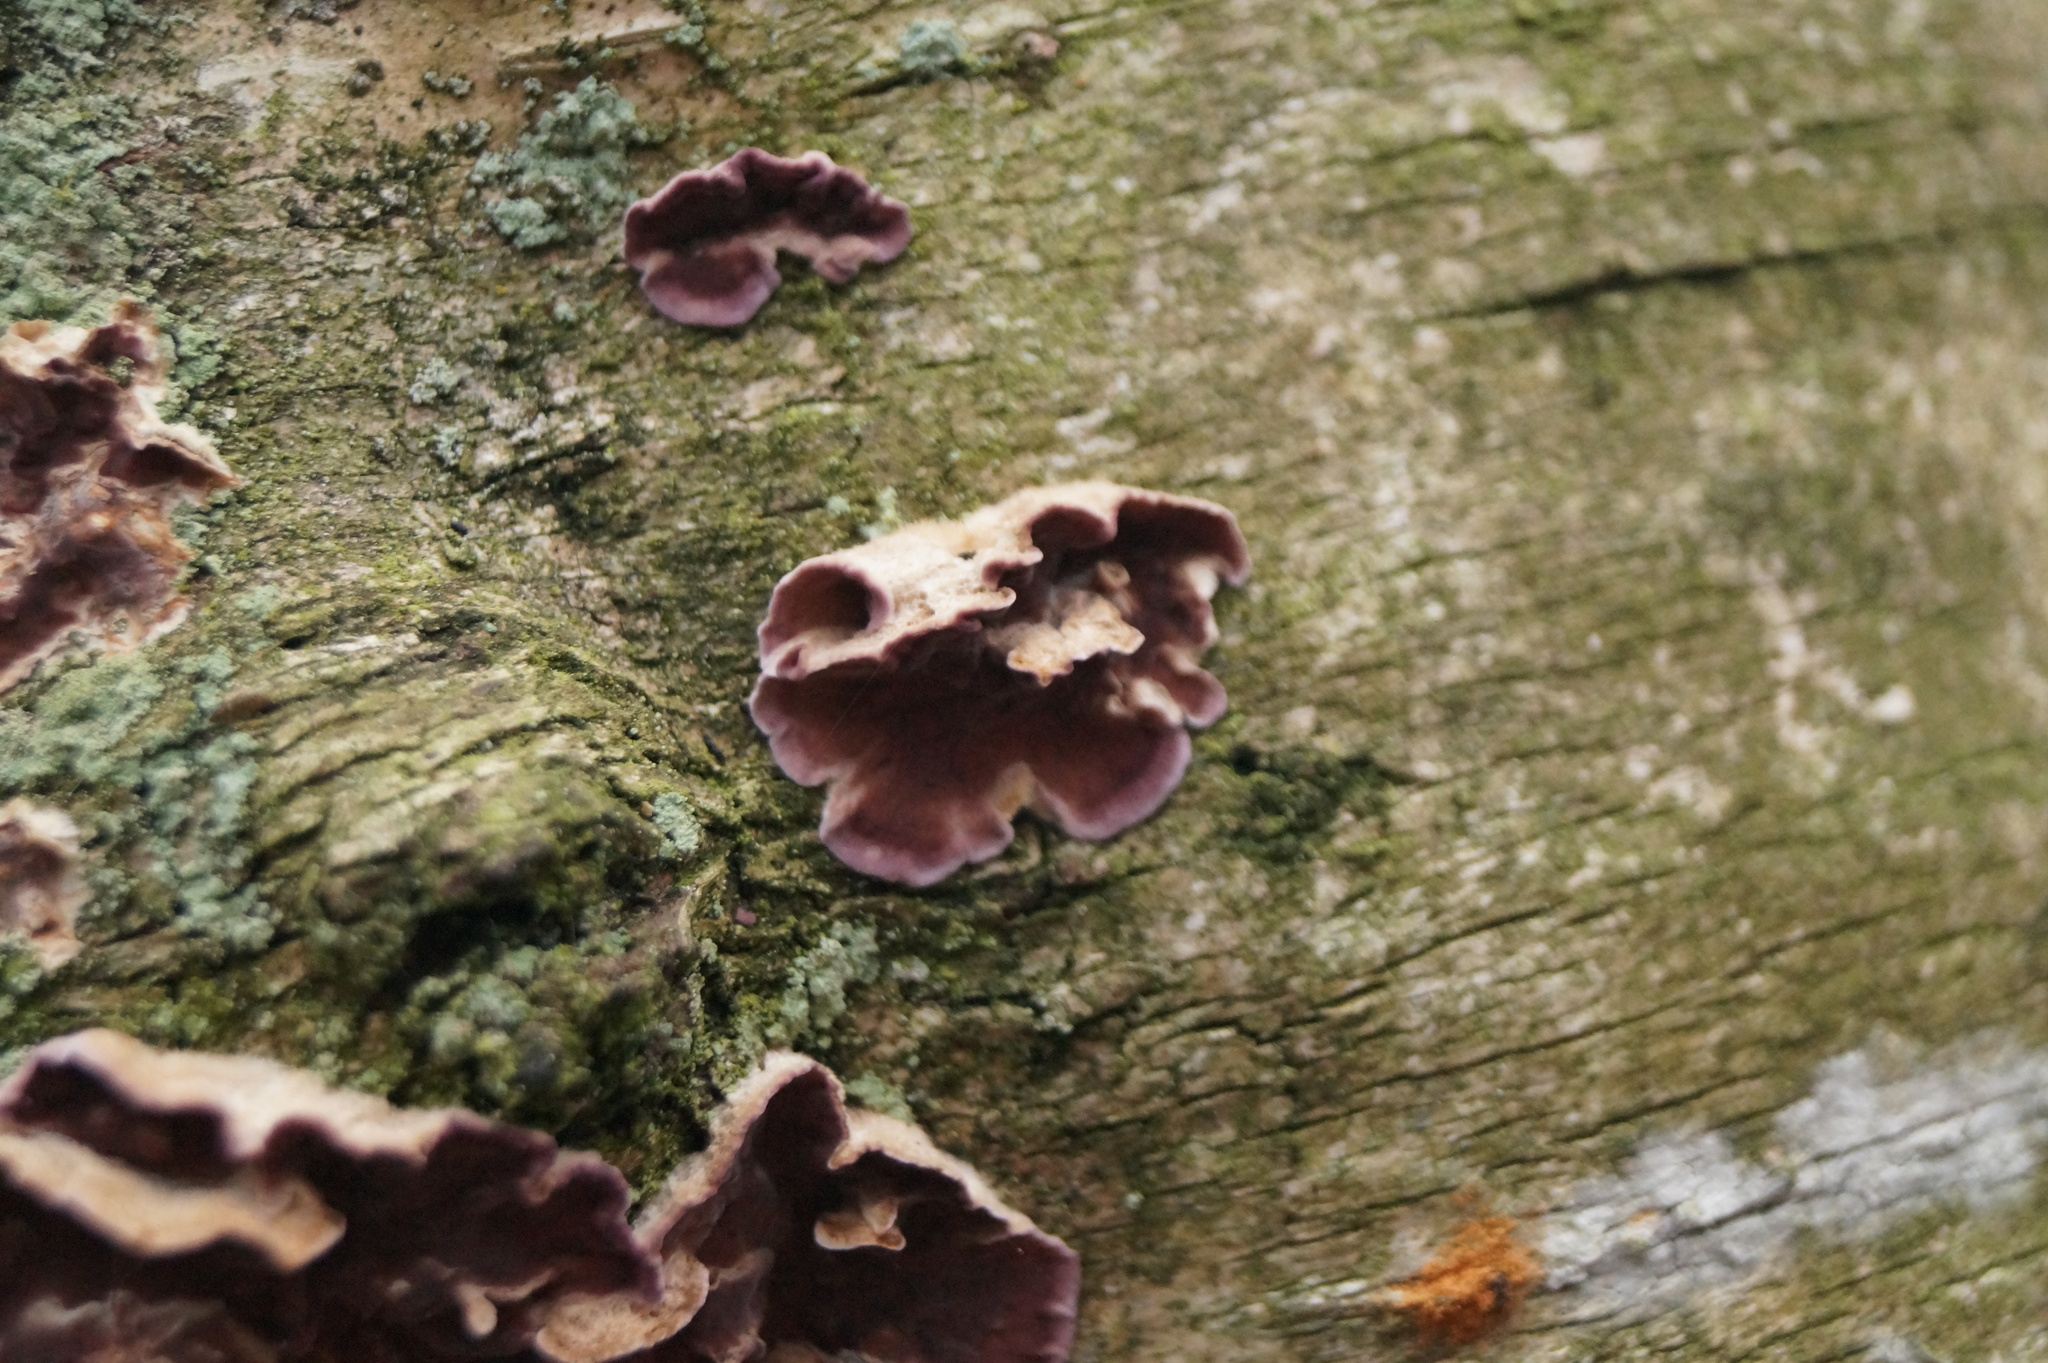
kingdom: Fungi
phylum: Basidiomycota
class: Agaricomycetes
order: Agaricales
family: Cyphellaceae
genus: Chondrostereum
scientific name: Chondrostereum purpureum
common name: Silver leaf disease
